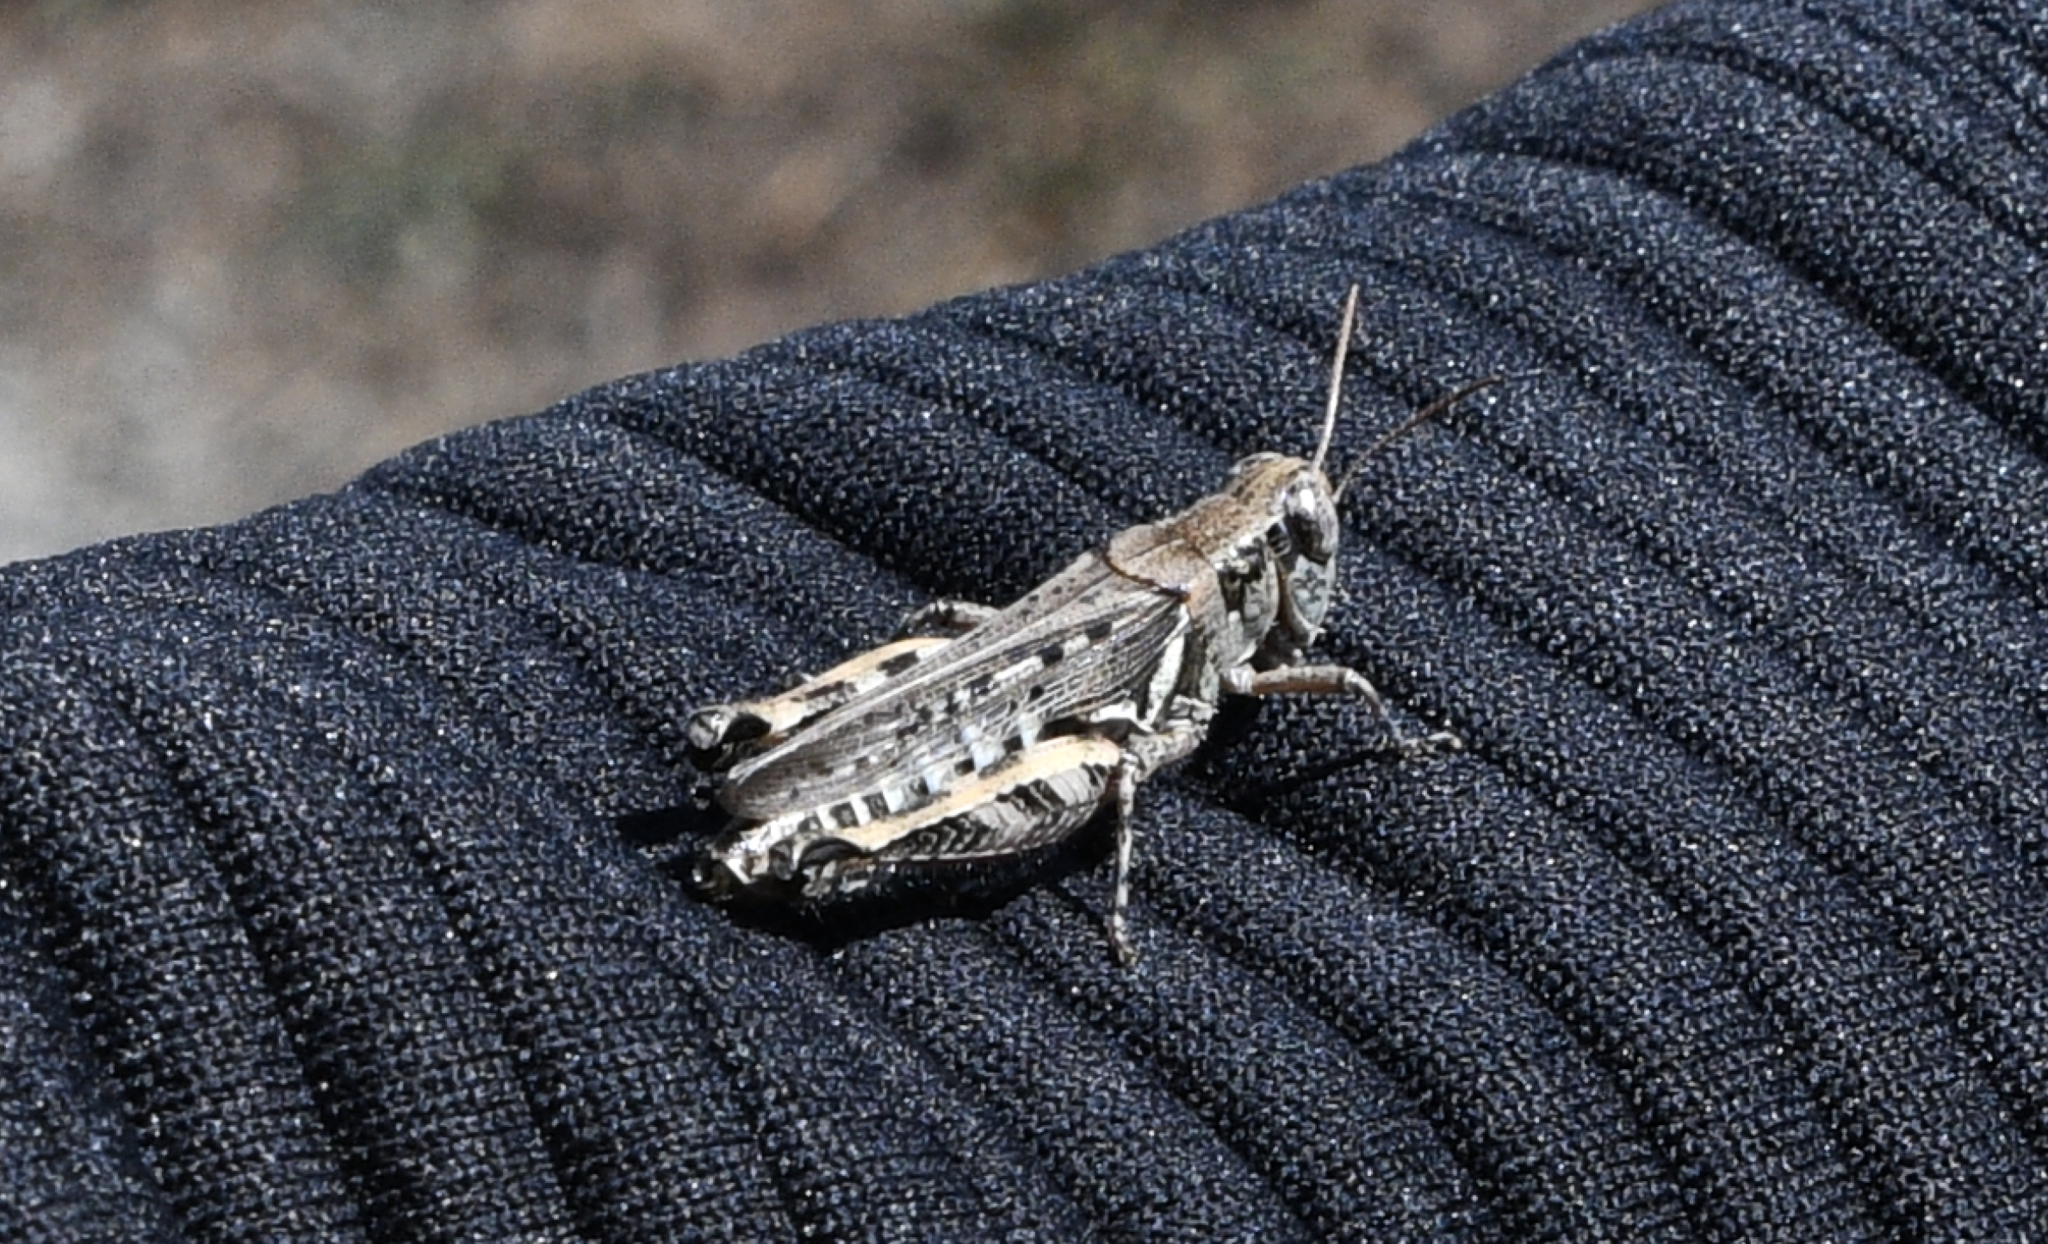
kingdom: Animalia
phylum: Arthropoda
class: Insecta
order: Orthoptera
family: Acrididae
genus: Melanoplus
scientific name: Melanoplus devastator
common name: Devastating grasshopper
